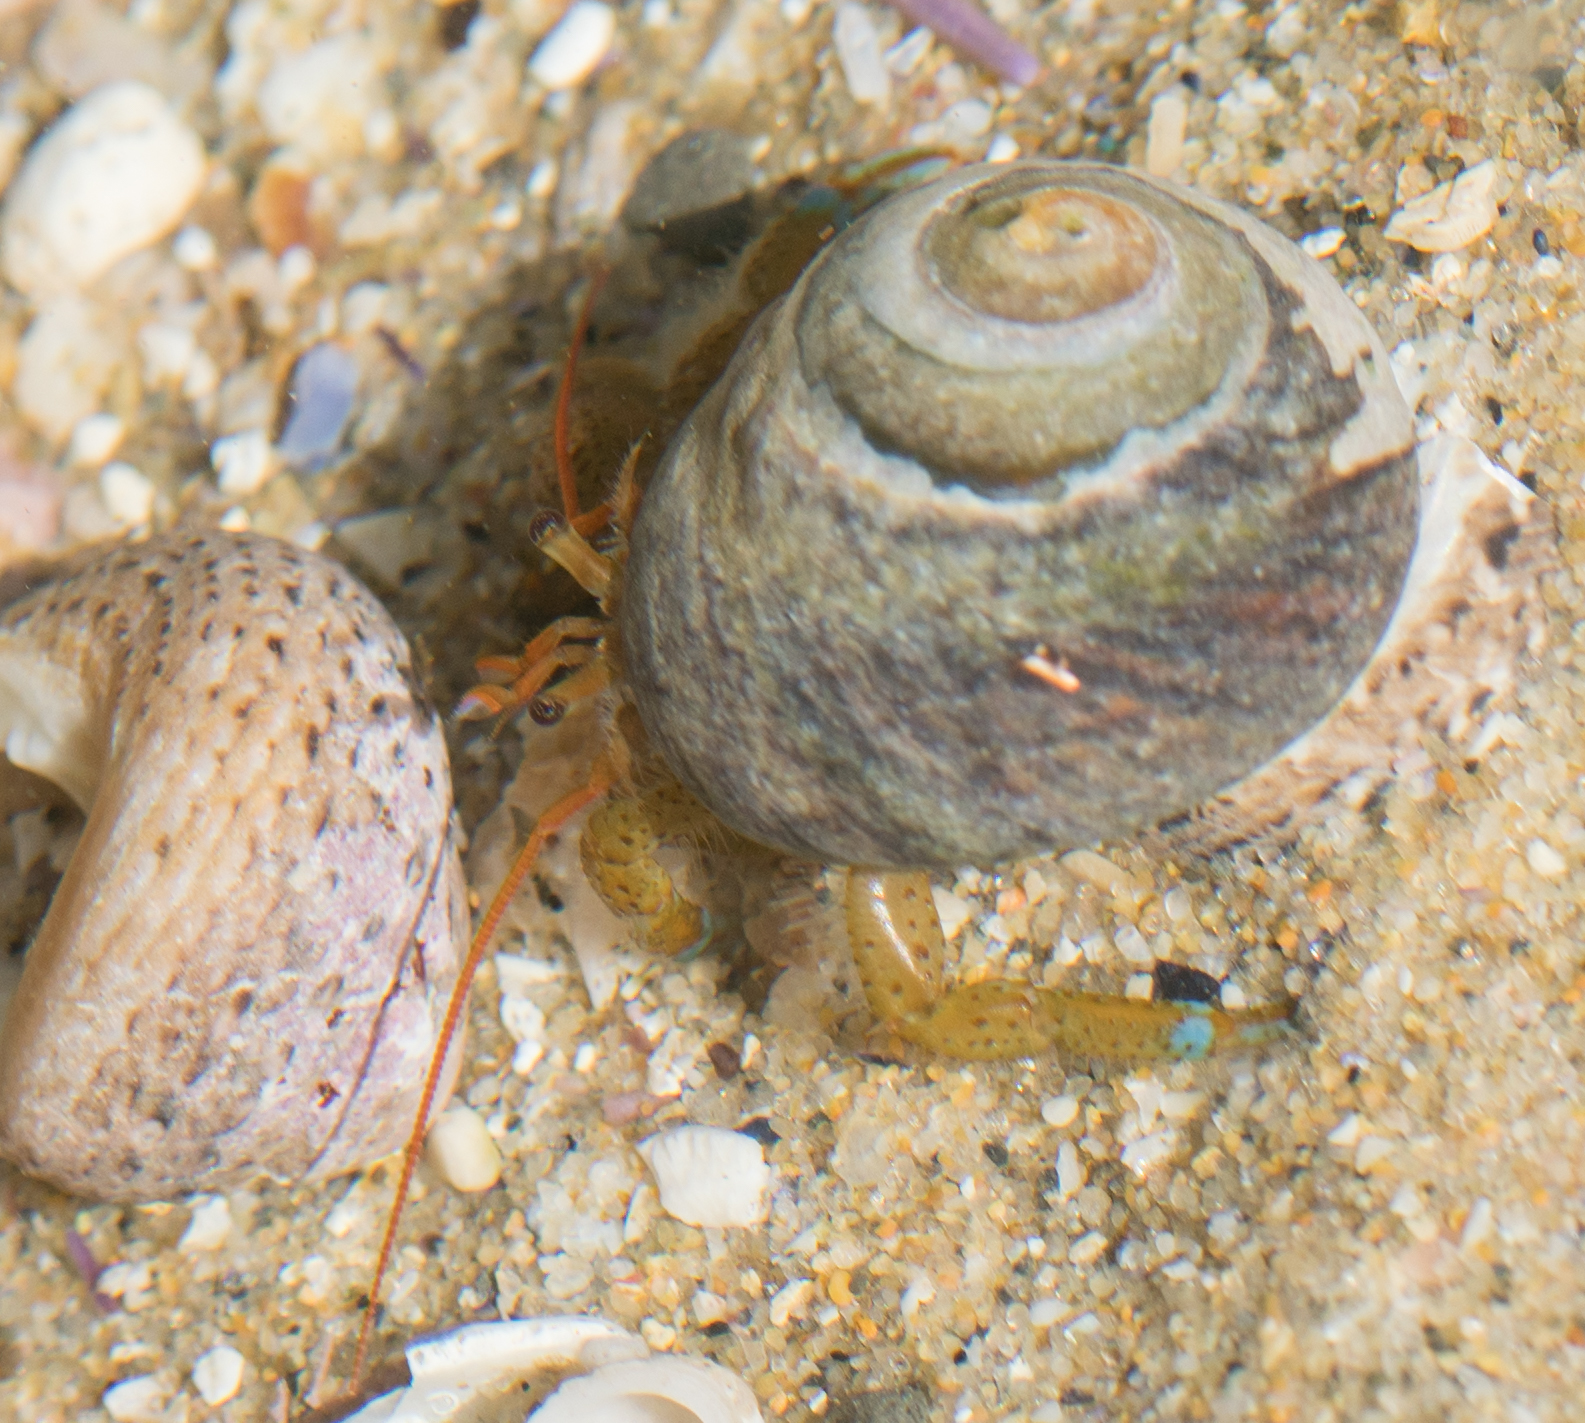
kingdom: Animalia
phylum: Arthropoda
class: Malacostraca
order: Decapoda
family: Paguridae
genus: Pagurus
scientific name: Pagurus samuelis
